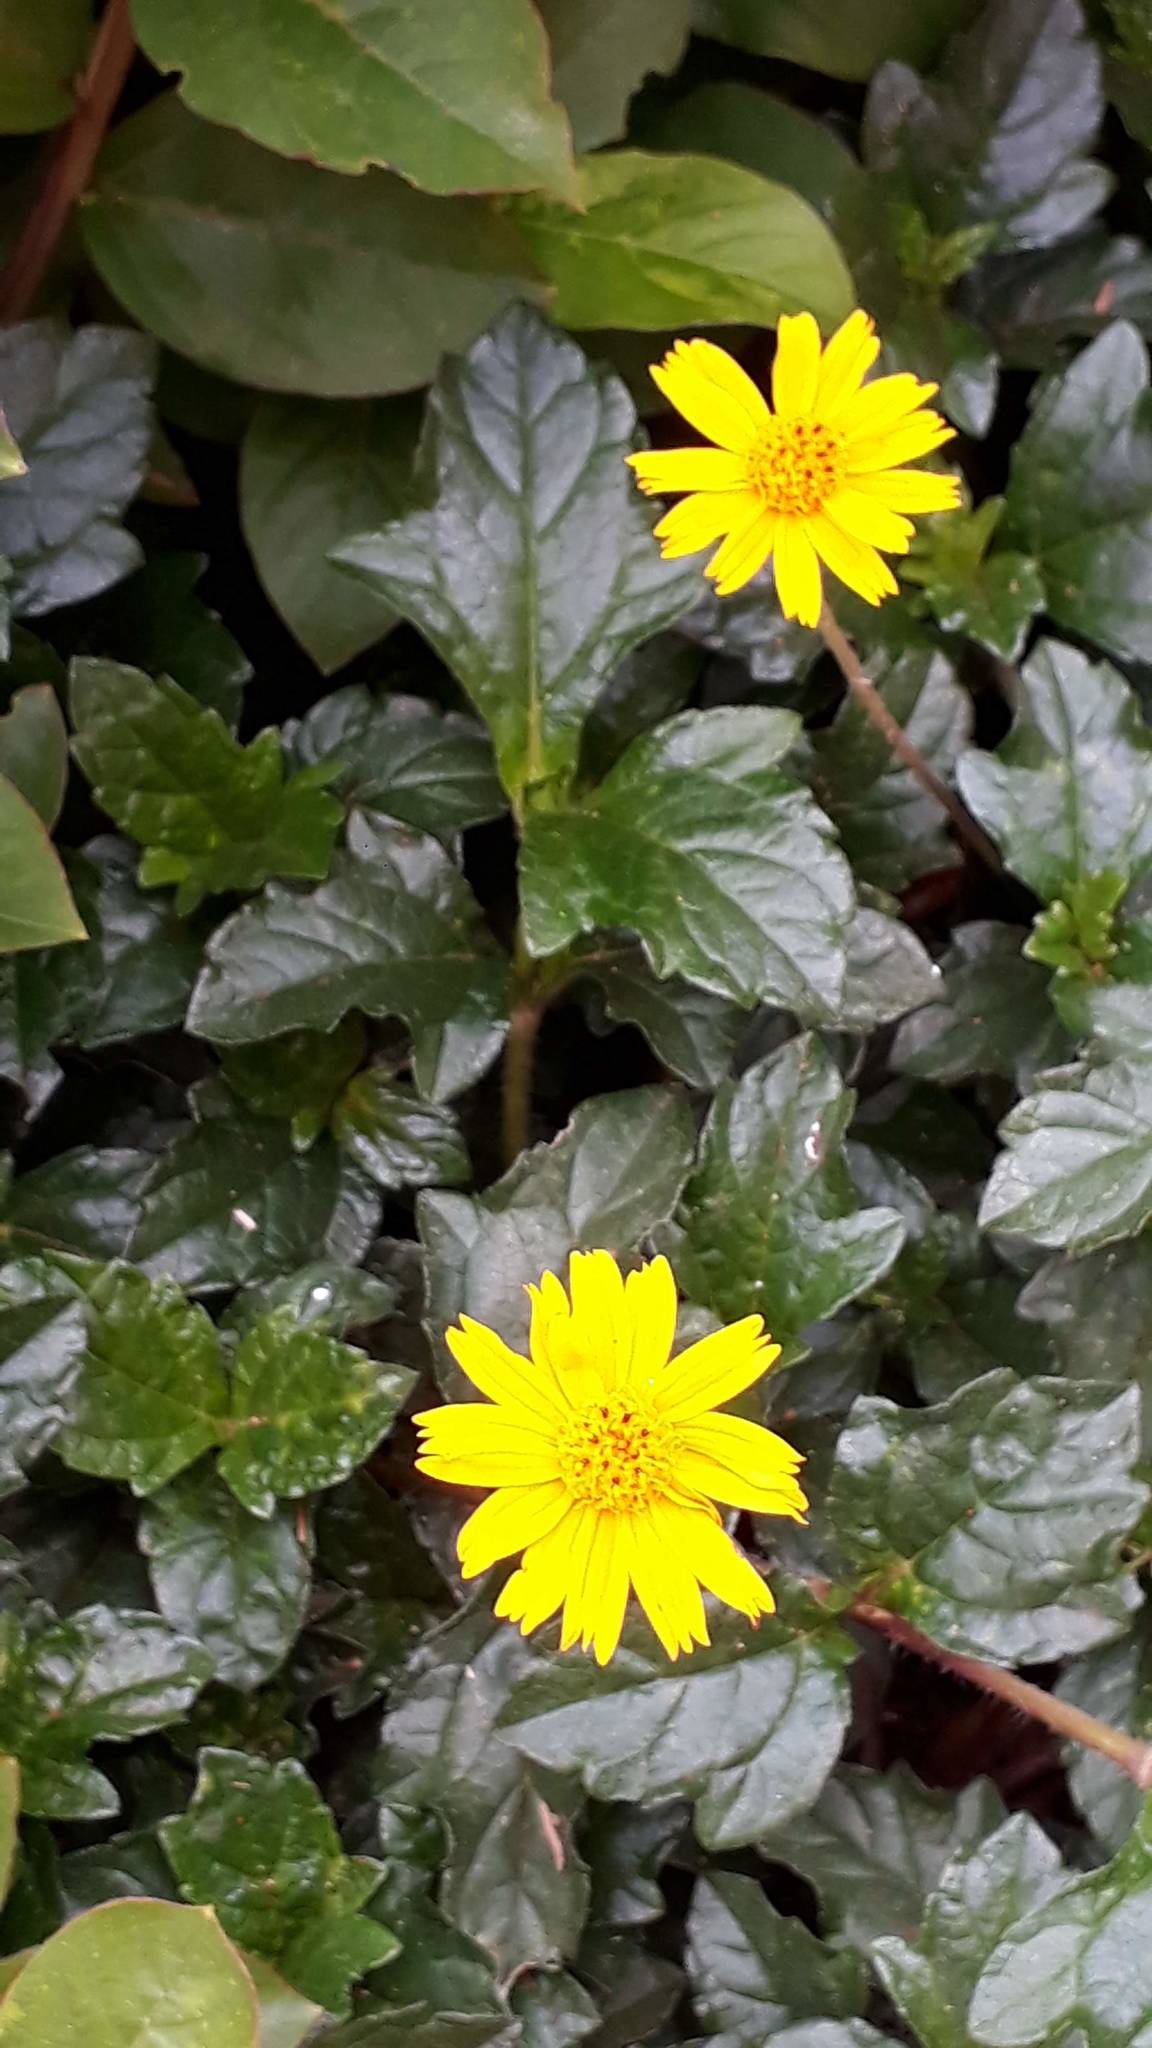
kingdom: Plantae
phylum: Tracheophyta
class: Magnoliopsida
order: Asterales
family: Asteraceae
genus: Sphagneticola
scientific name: Sphagneticola trilobata
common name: Bay biscayne creeping-oxeye
